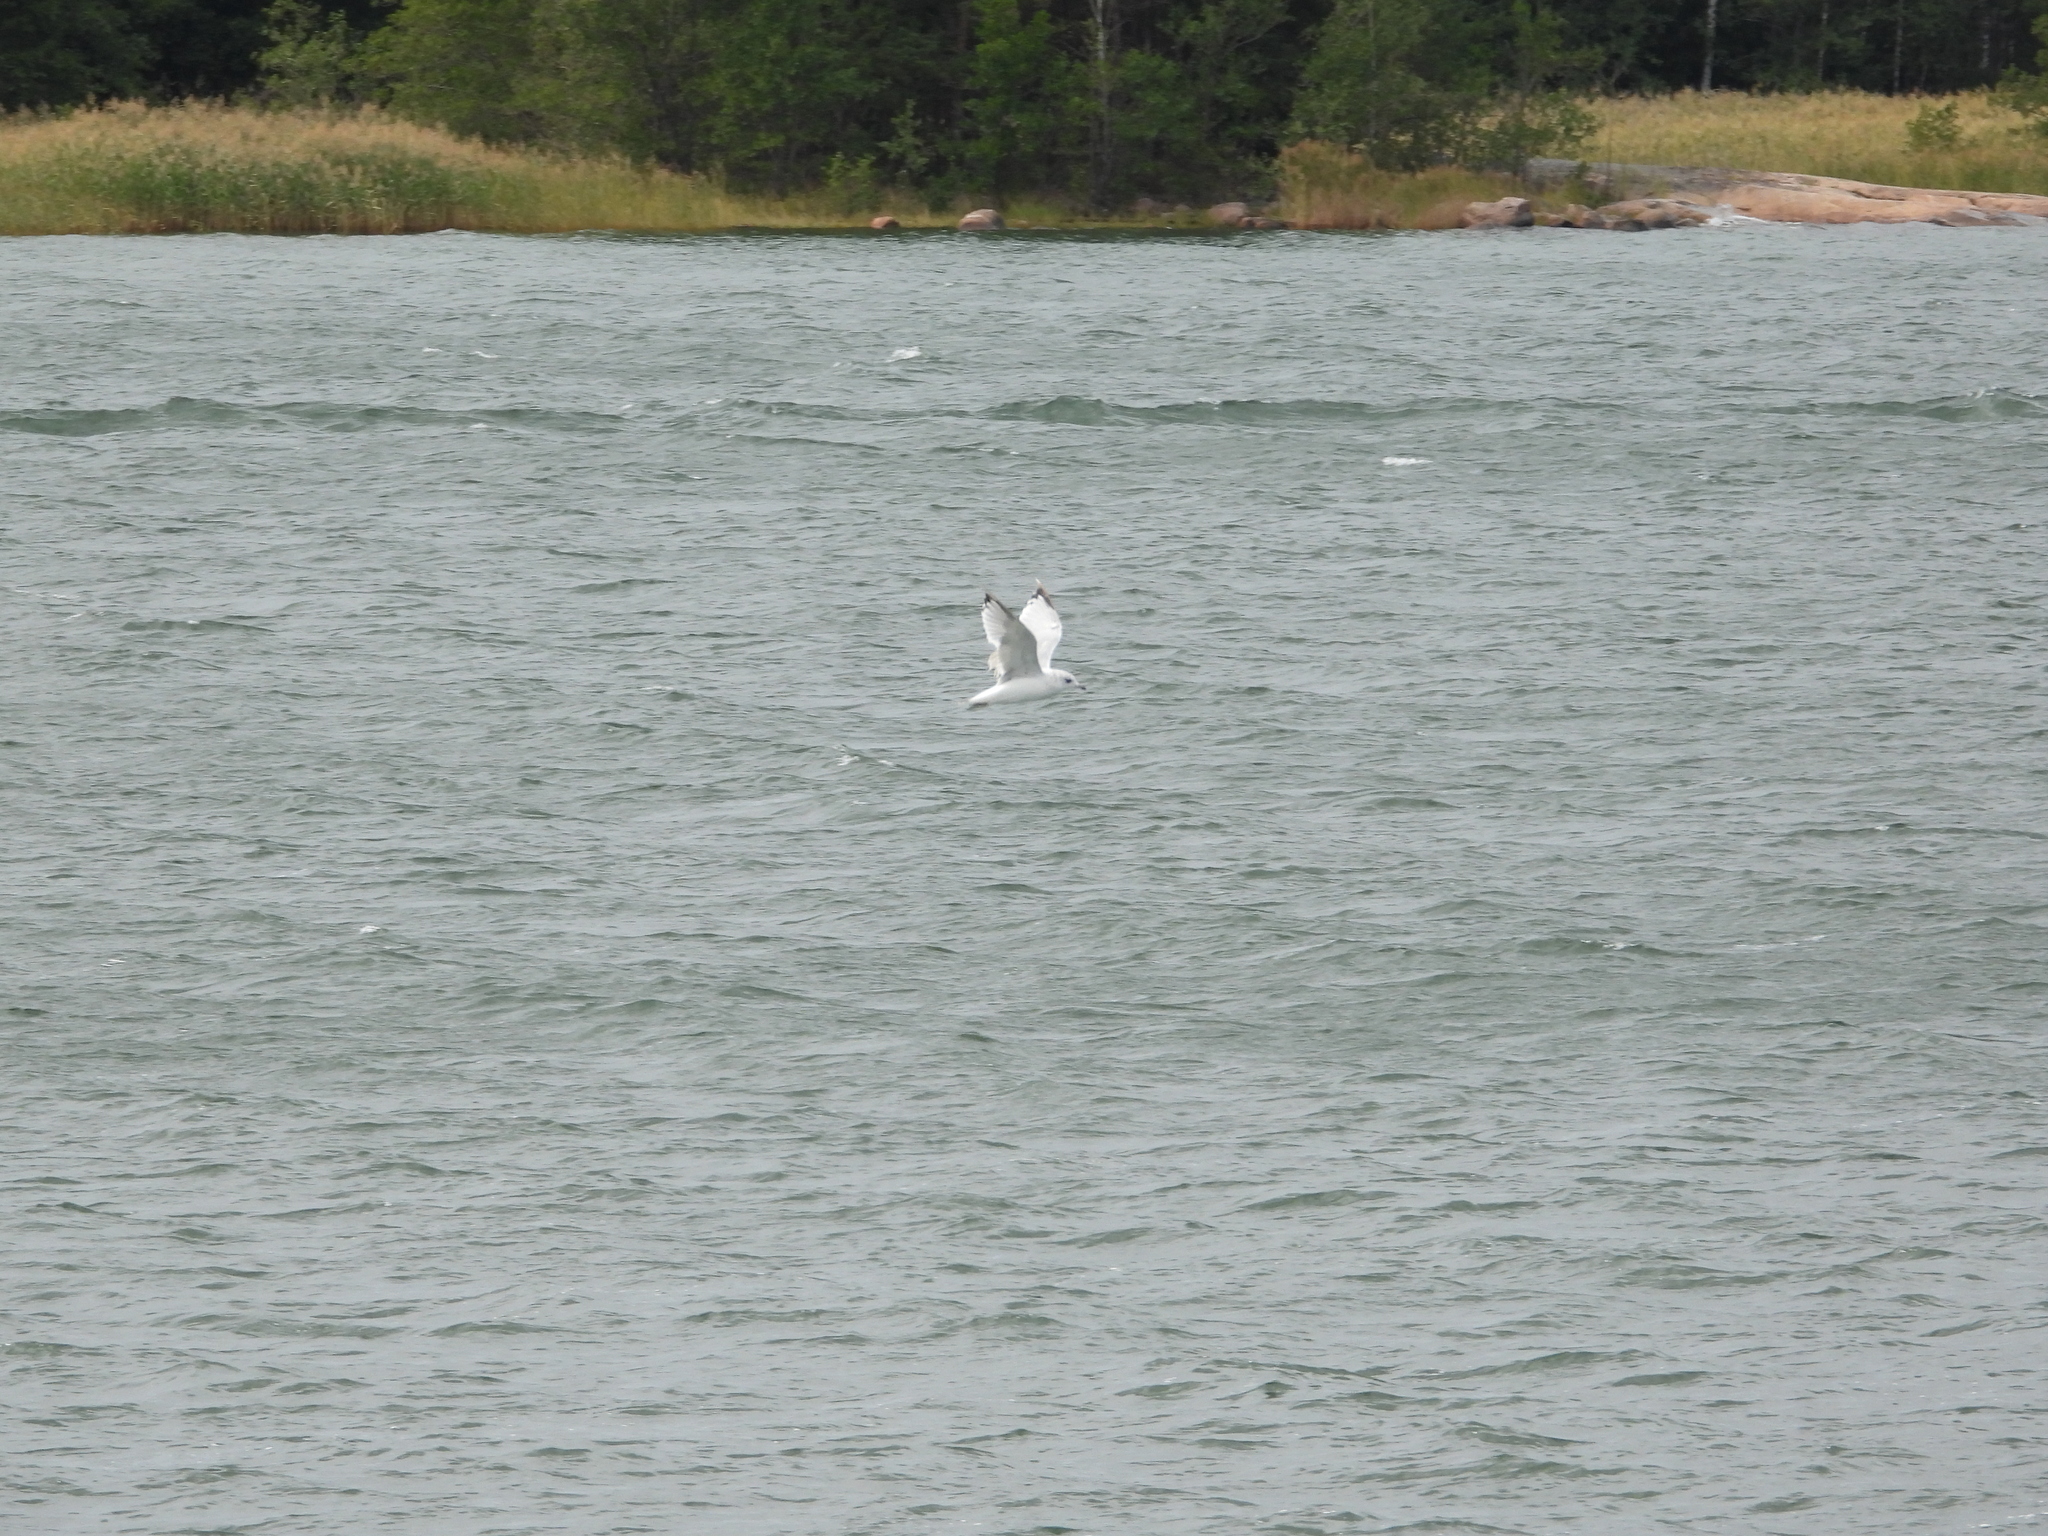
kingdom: Animalia
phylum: Chordata
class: Aves
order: Charadriiformes
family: Laridae
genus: Larus
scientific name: Larus canus
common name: Mew gull
